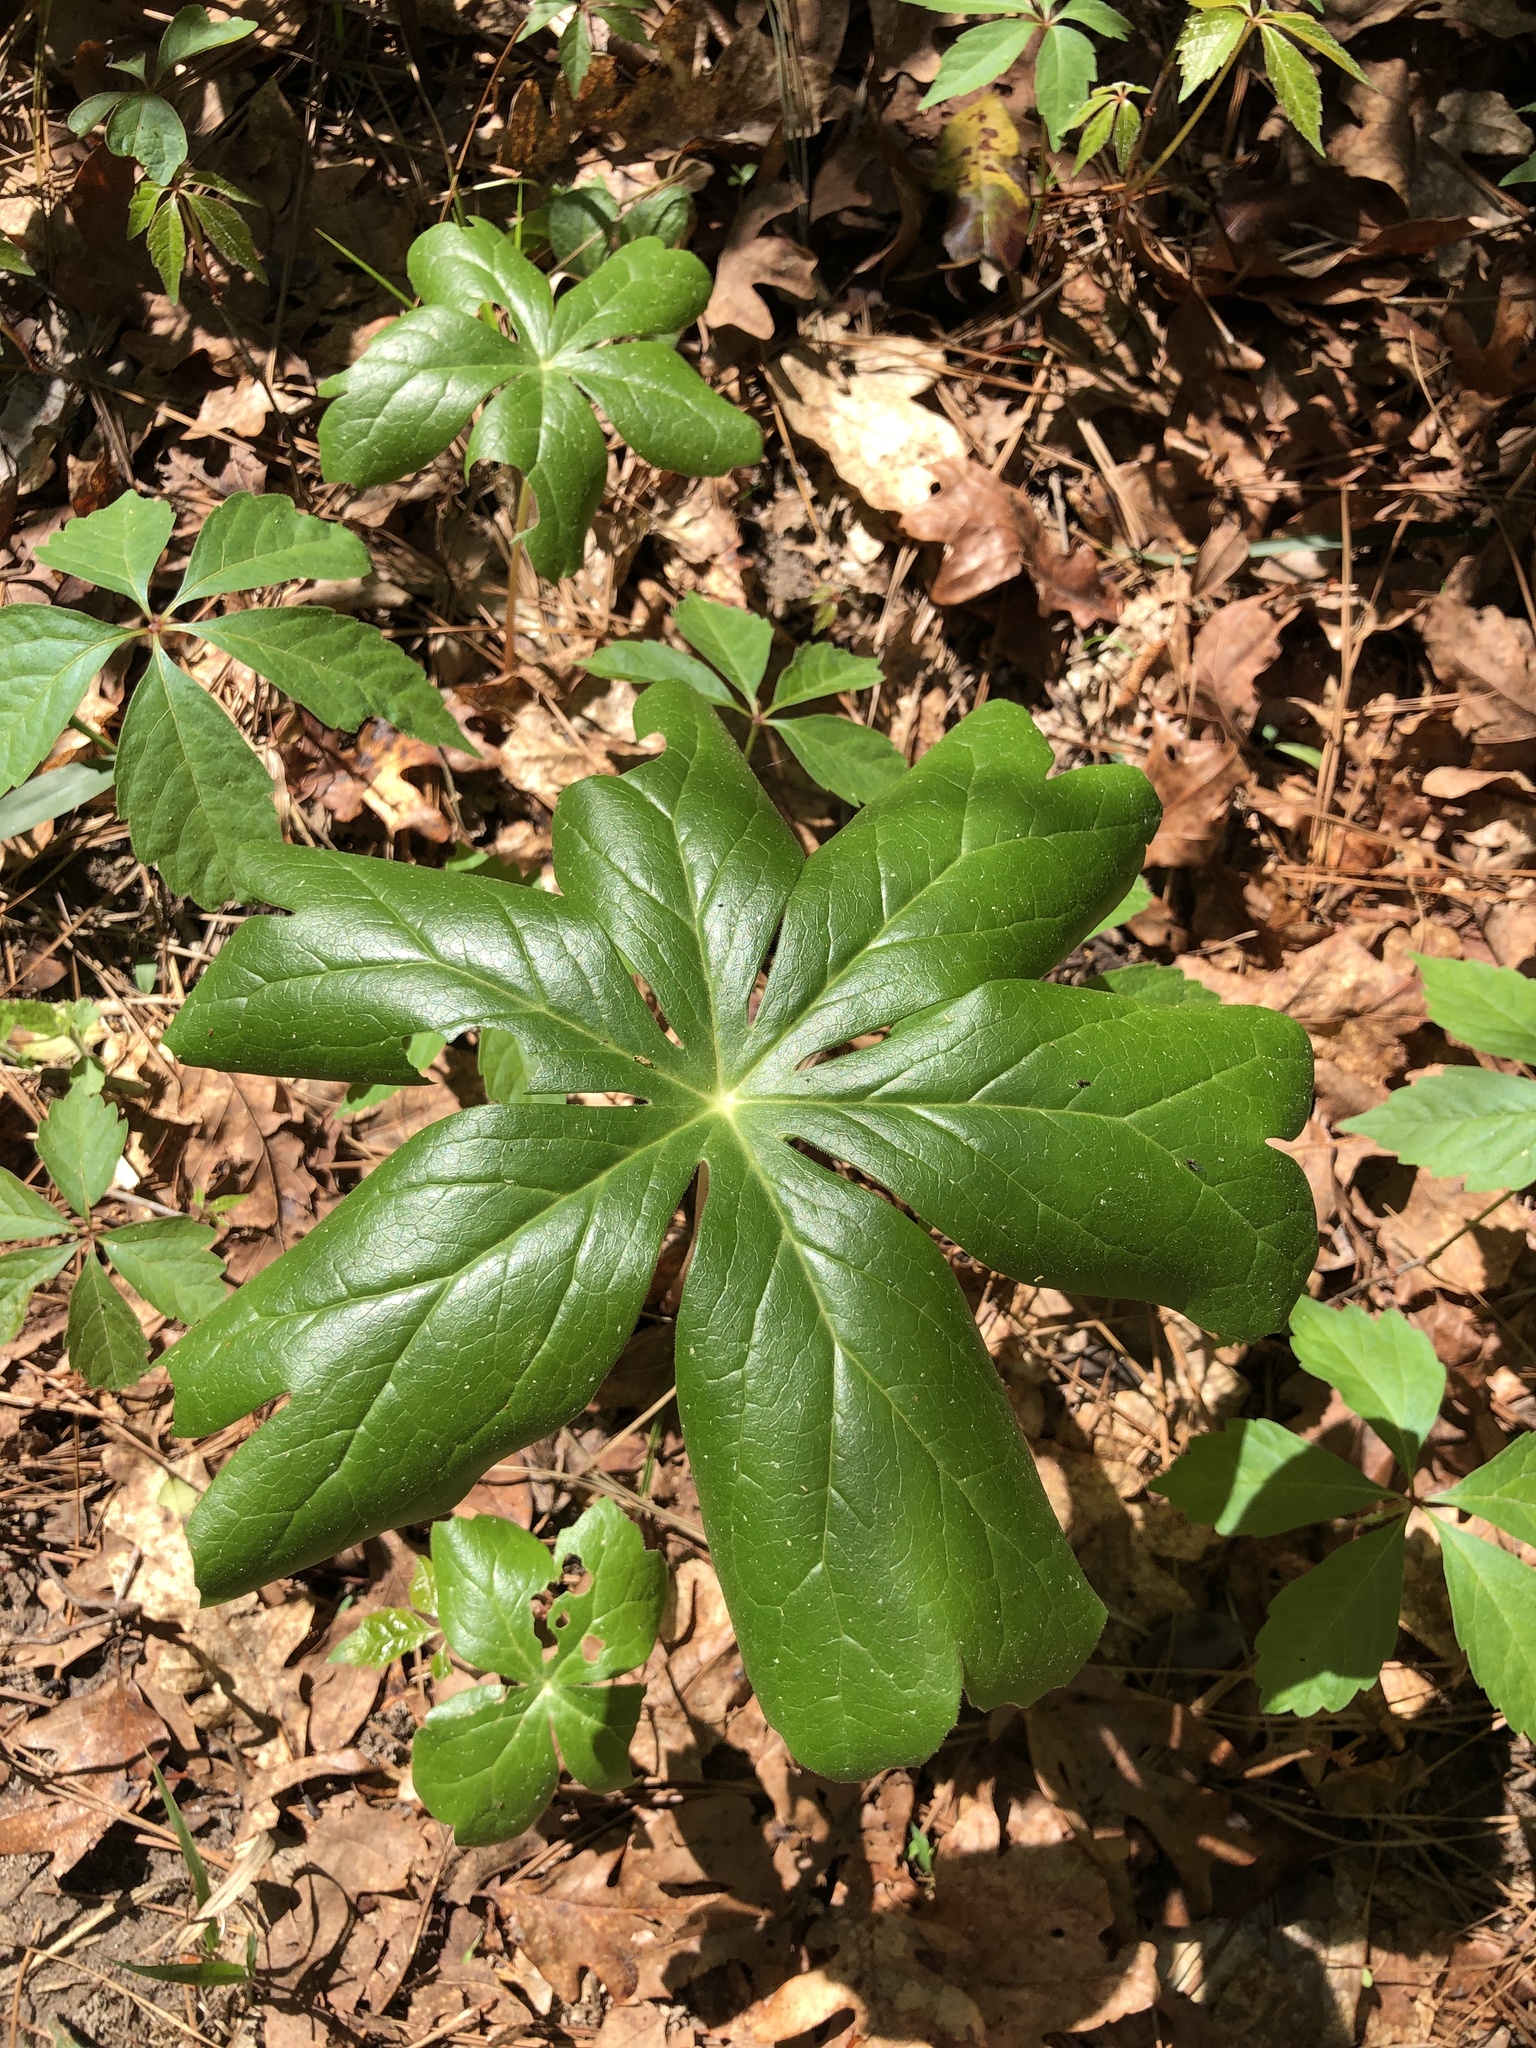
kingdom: Plantae
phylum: Tracheophyta
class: Magnoliopsida
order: Ranunculales
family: Berberidaceae
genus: Podophyllum
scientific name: Podophyllum peltatum
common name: Wild mandrake
